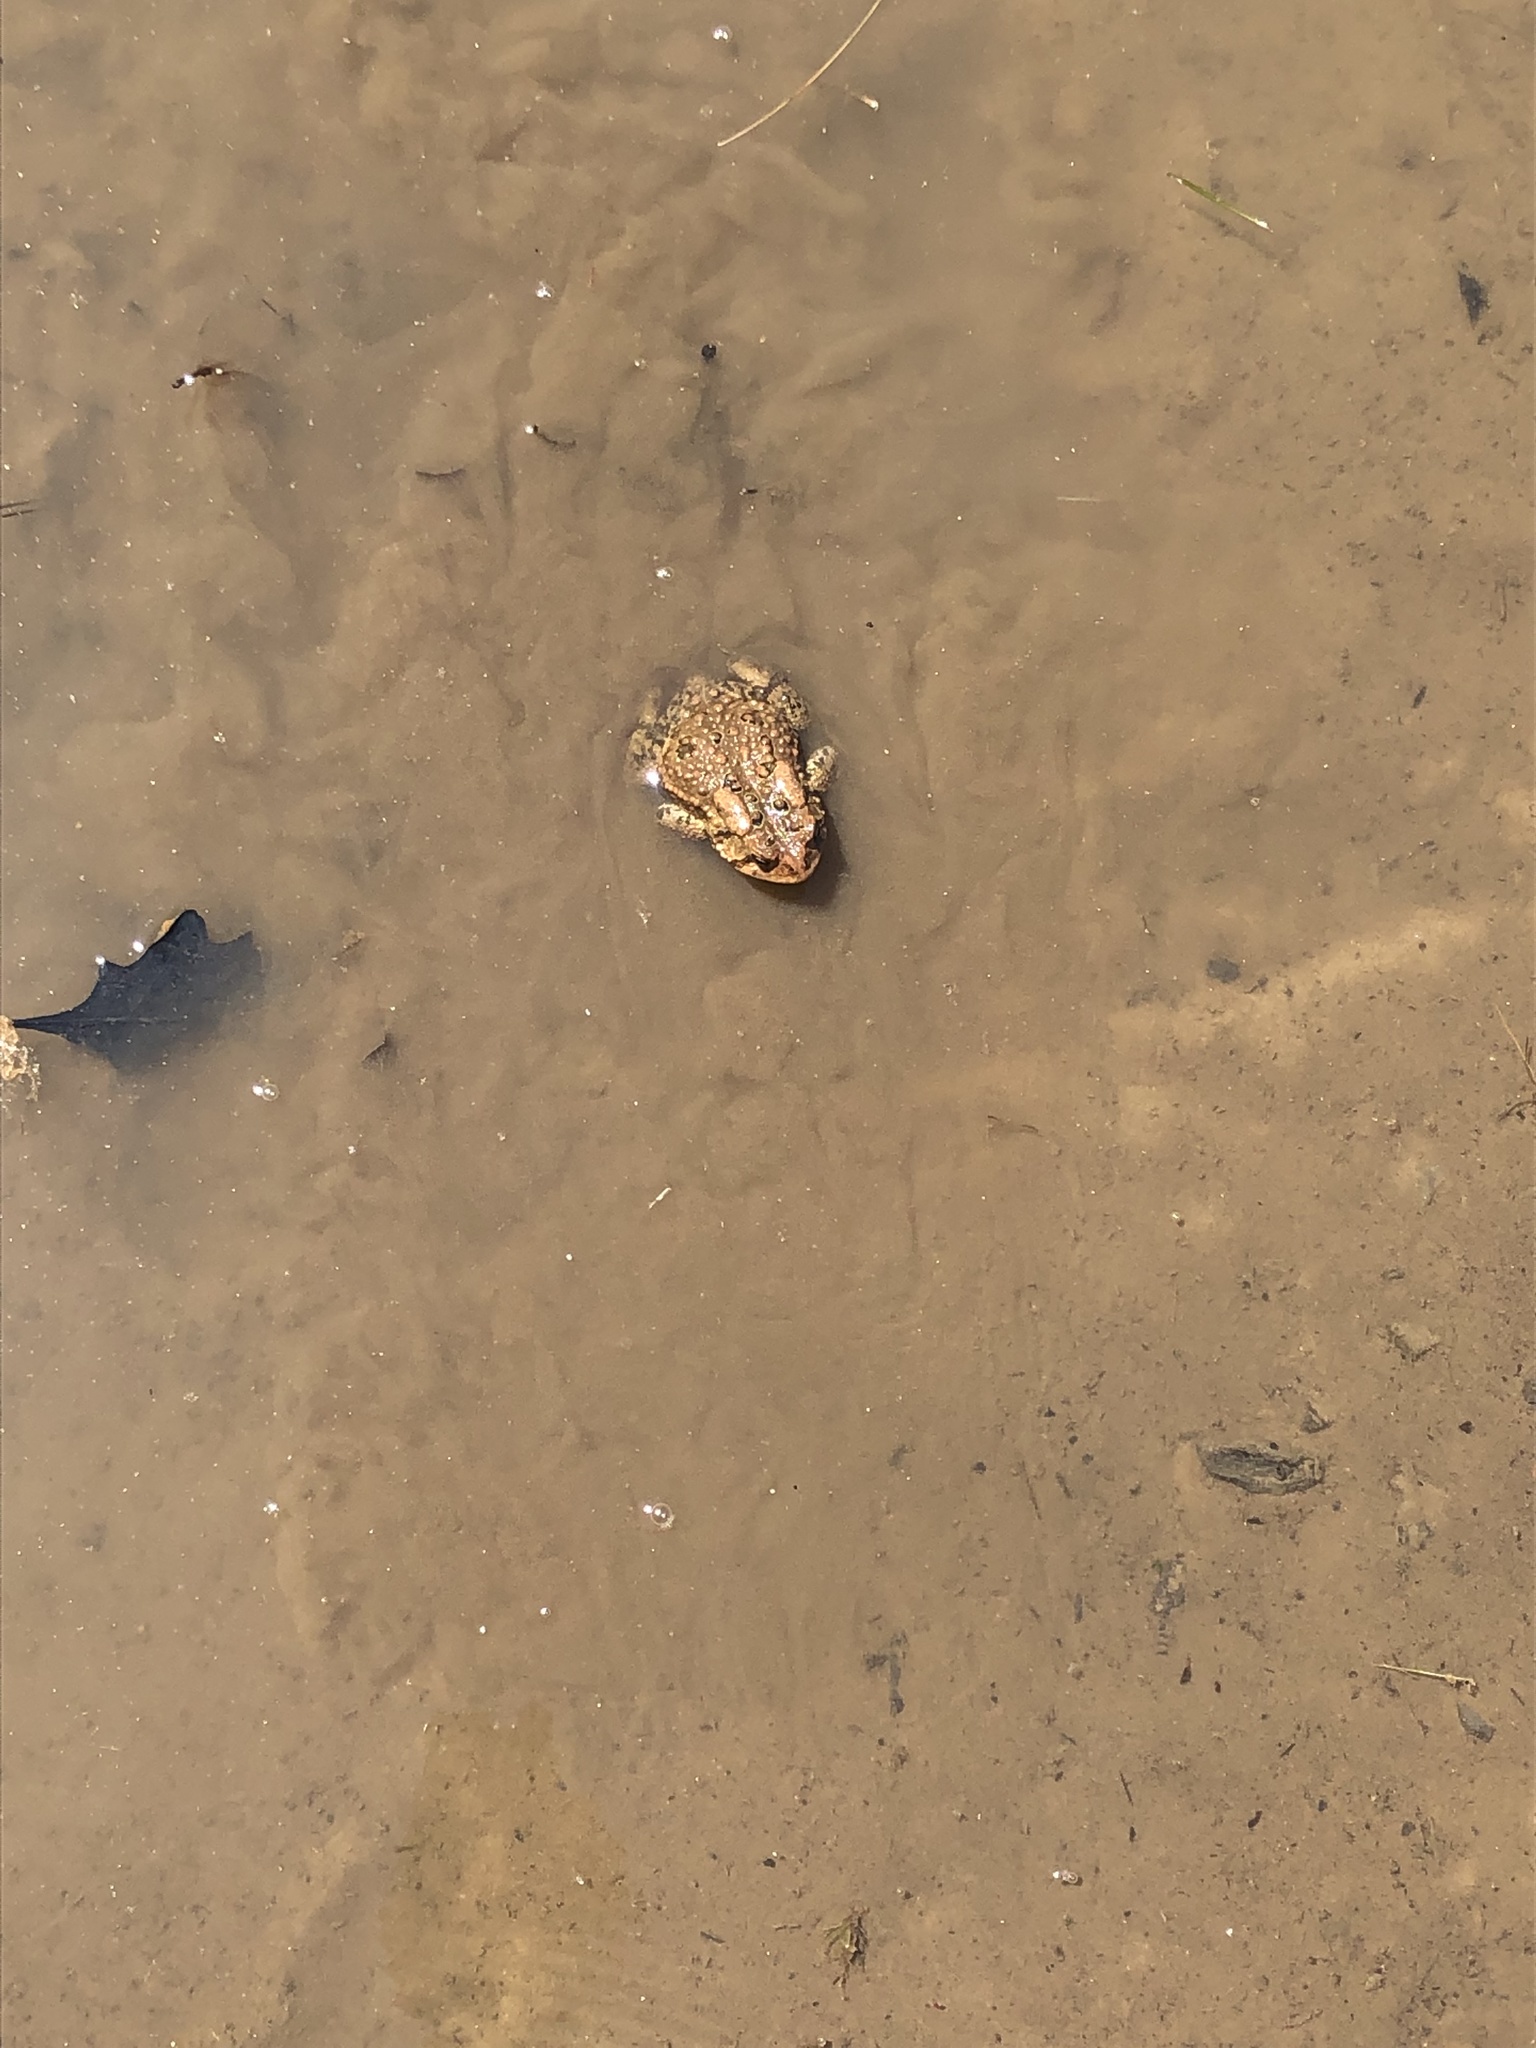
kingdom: Animalia
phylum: Chordata
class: Amphibia
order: Anura
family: Bufonidae
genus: Anaxyrus
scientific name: Anaxyrus americanus
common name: American toad
